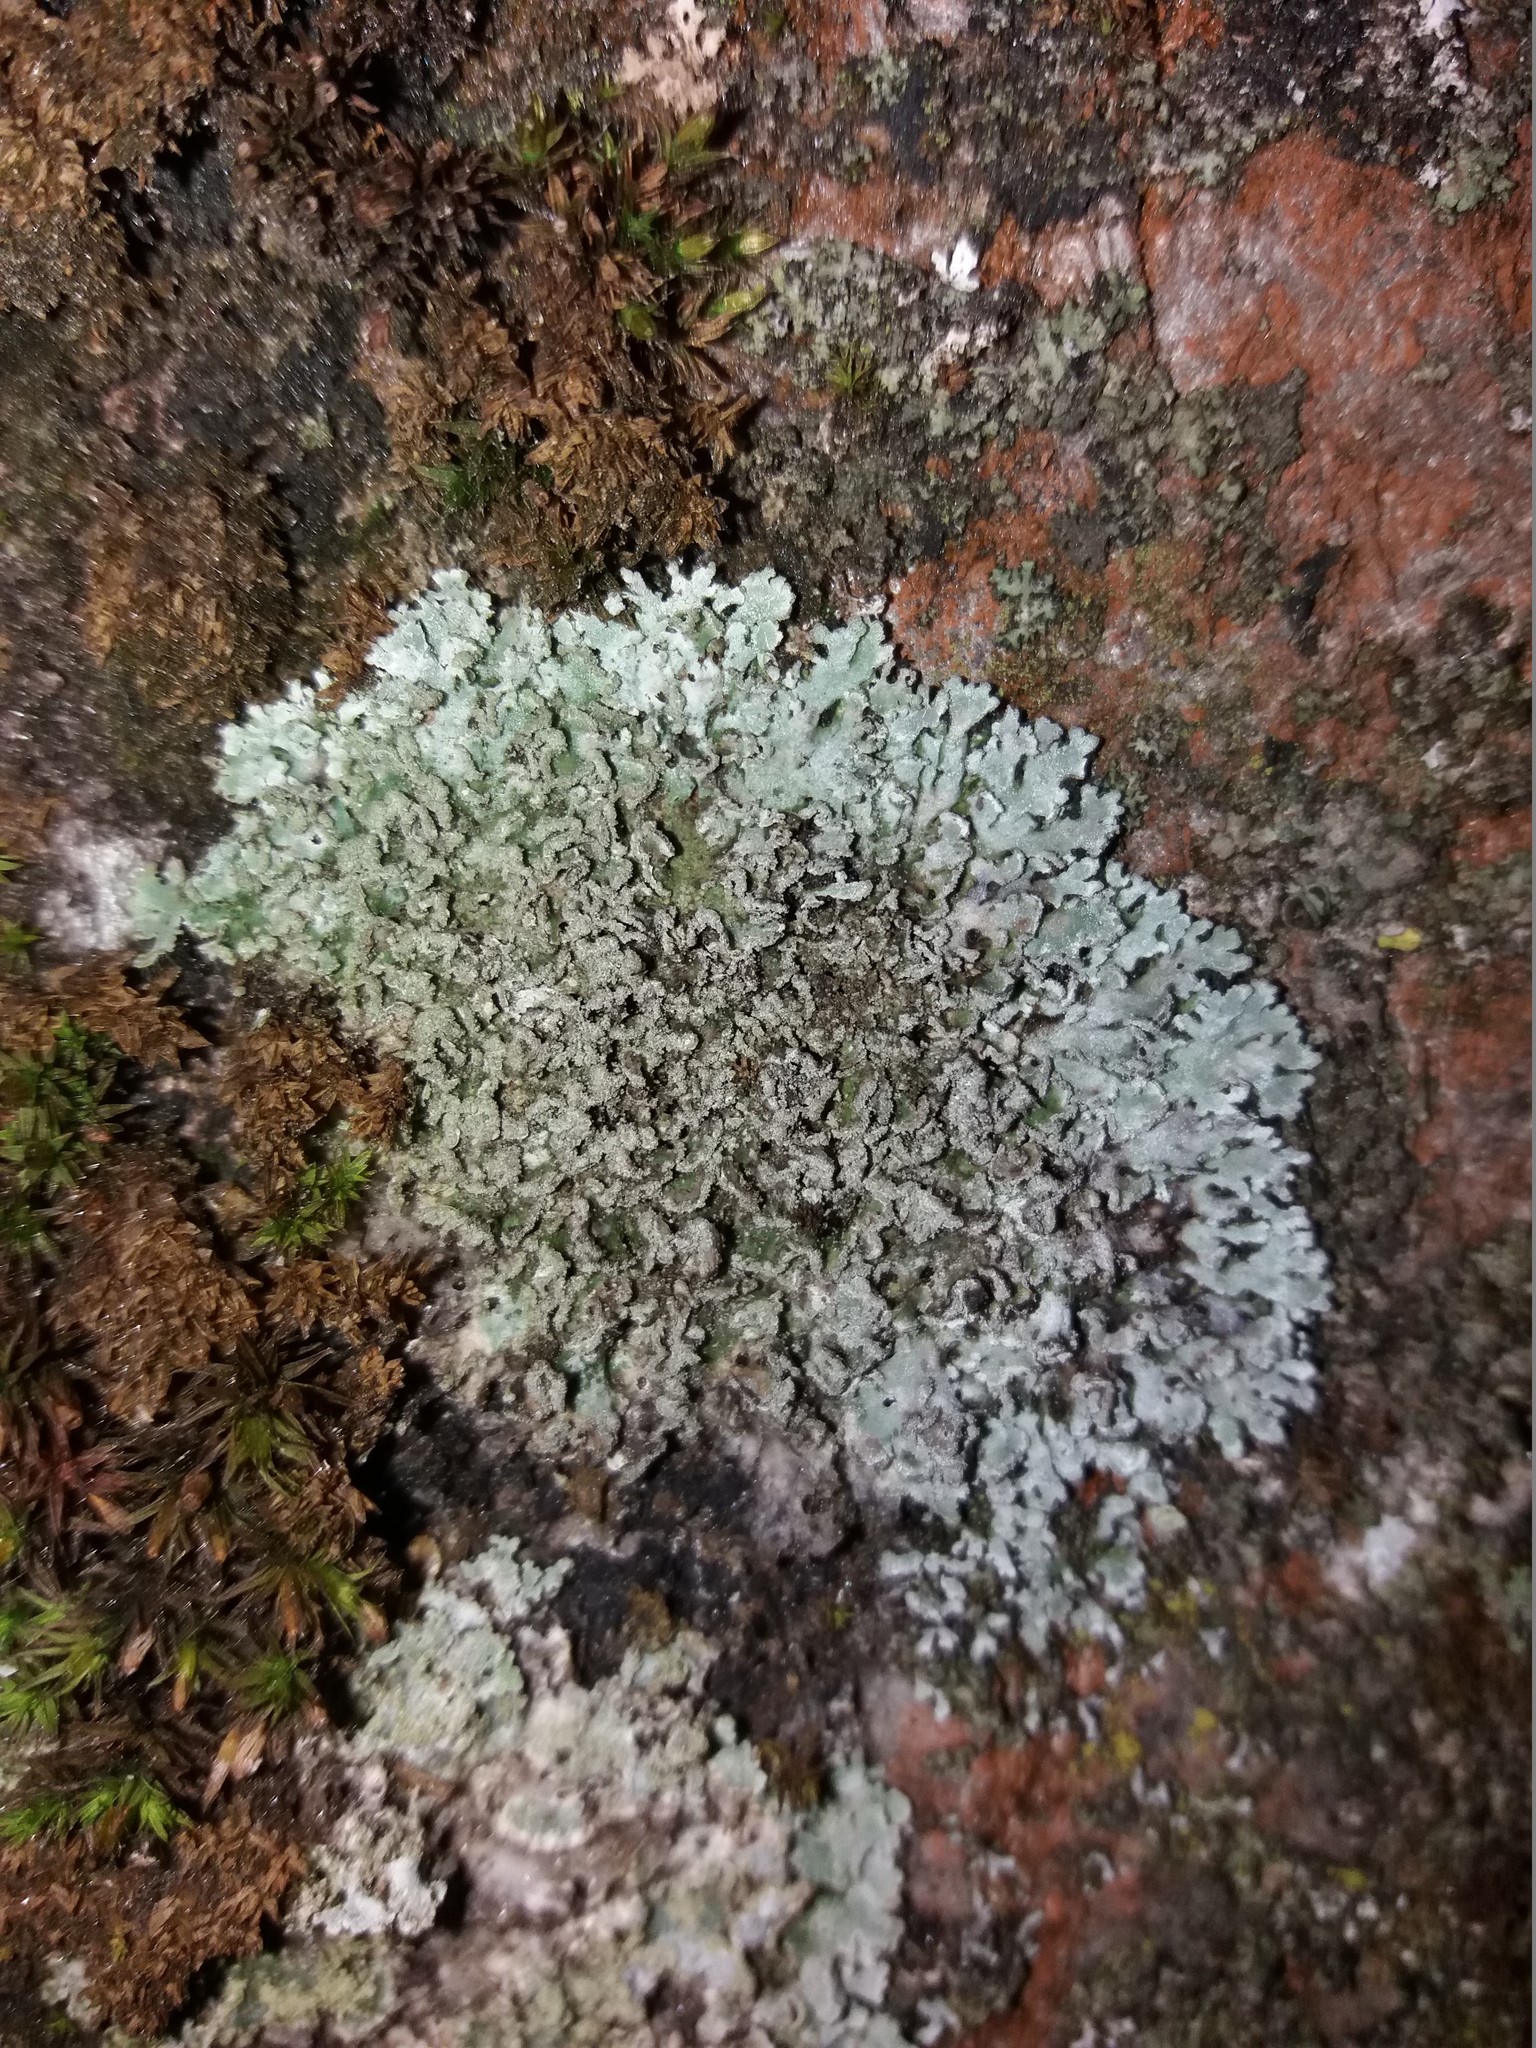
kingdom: Fungi
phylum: Ascomycota
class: Lecanoromycetes
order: Caliciales
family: Physciaceae
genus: Physconia
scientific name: Physconia perisidiosa
